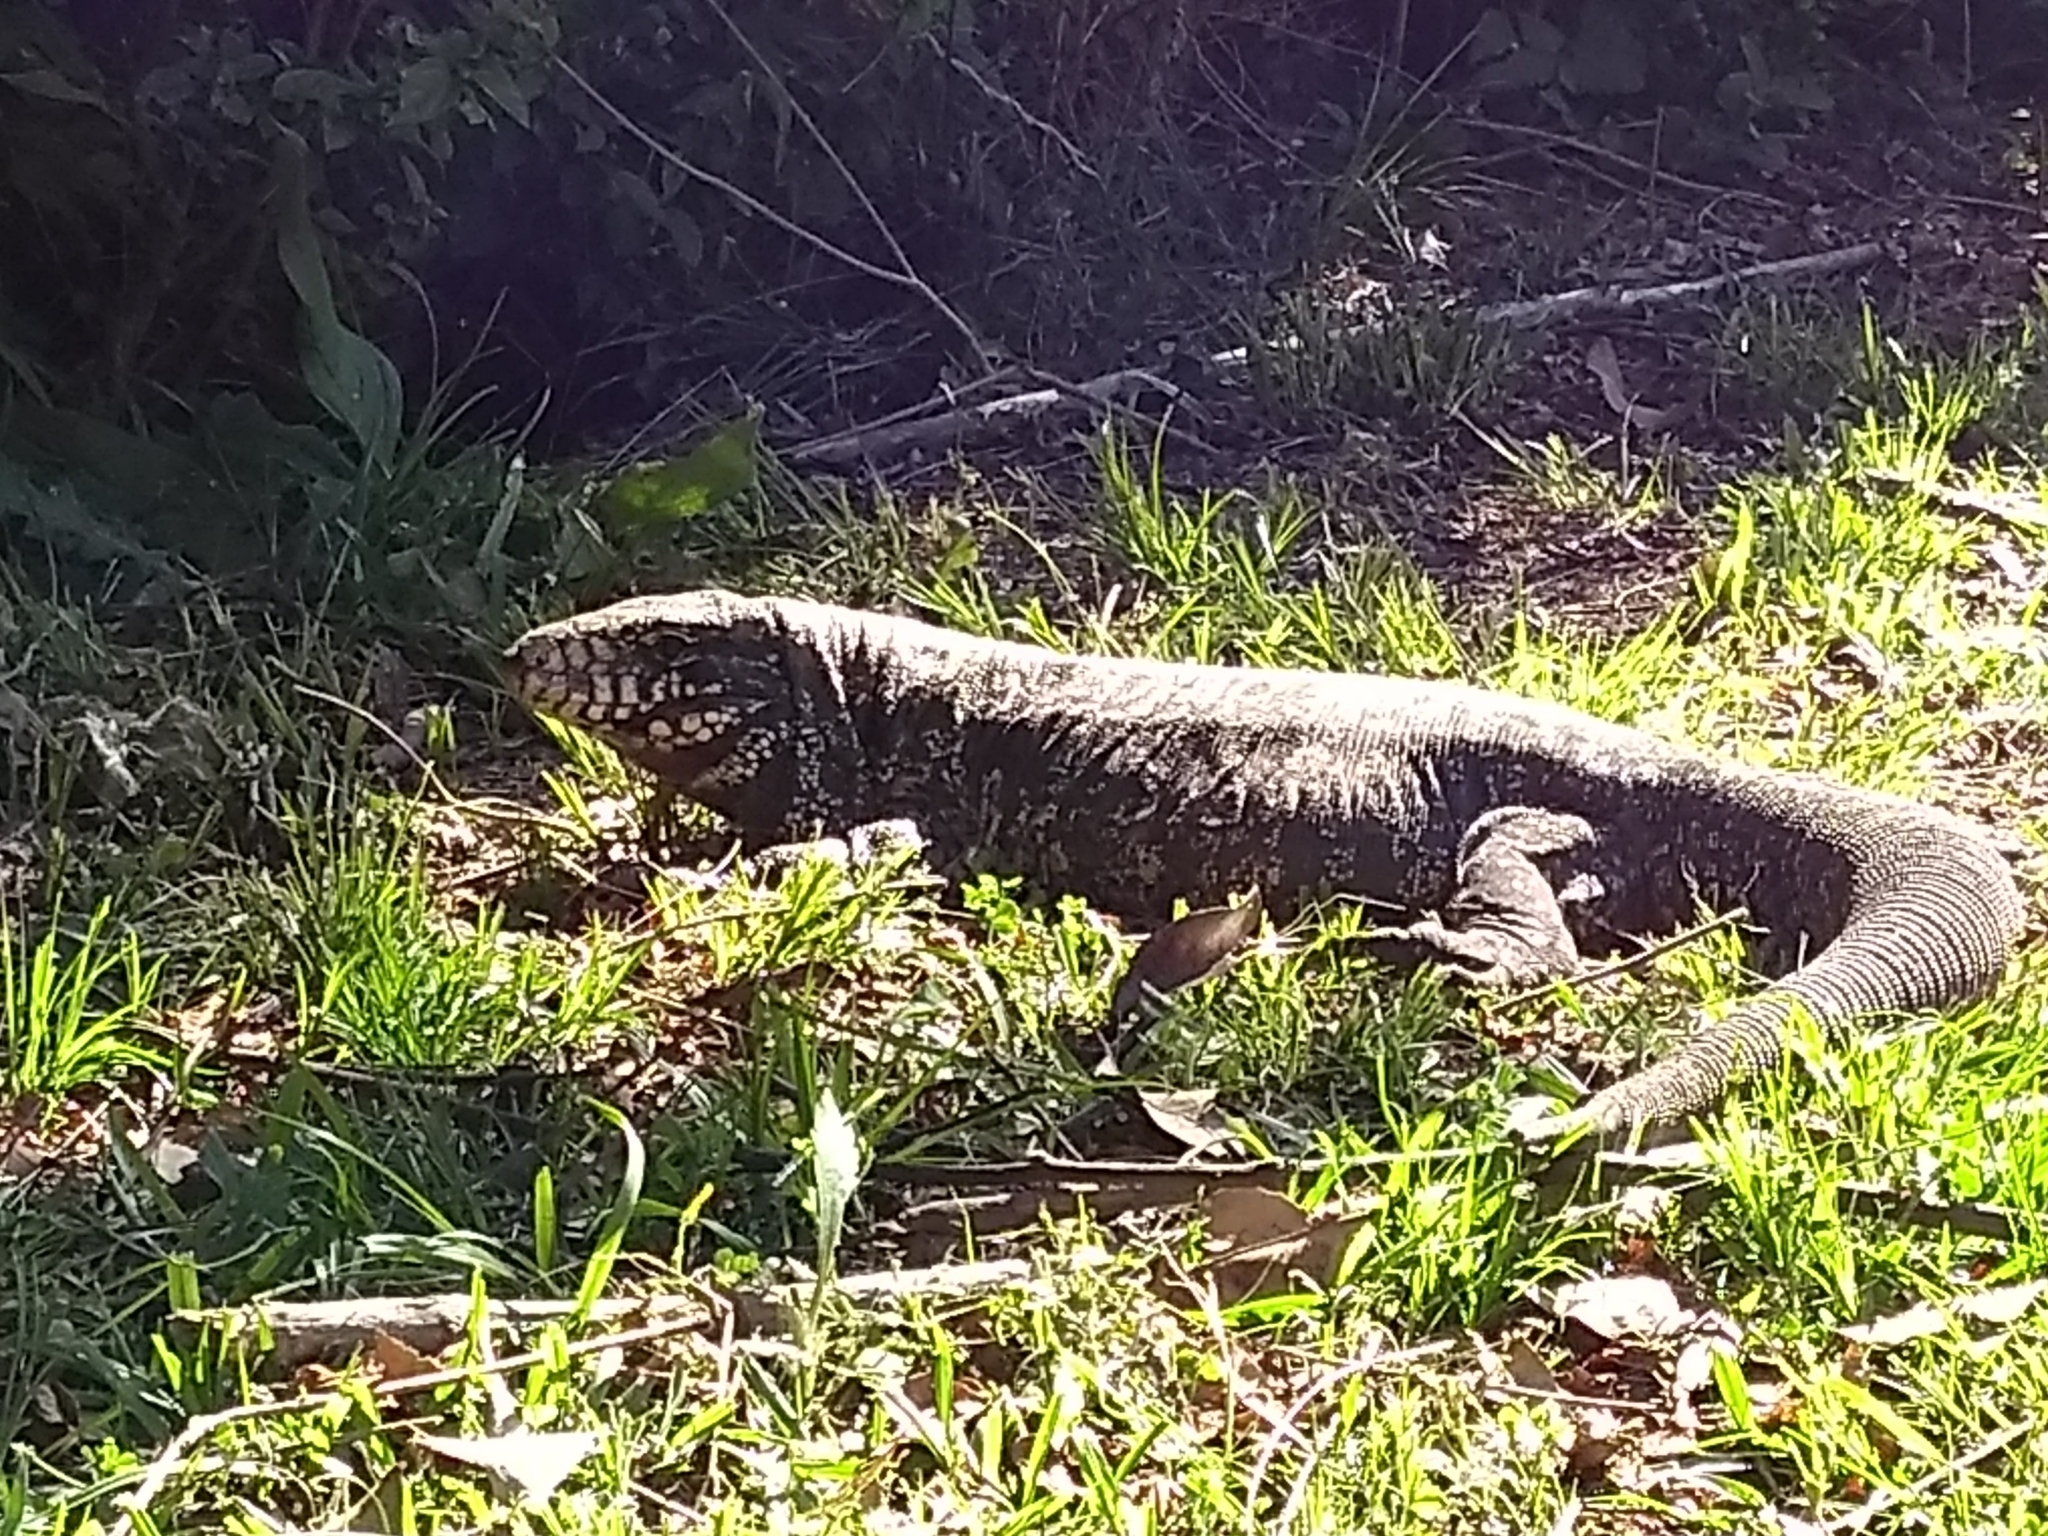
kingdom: Animalia
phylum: Chordata
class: Squamata
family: Teiidae
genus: Salvator
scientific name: Salvator merianae
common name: Argentine black and white tegu
